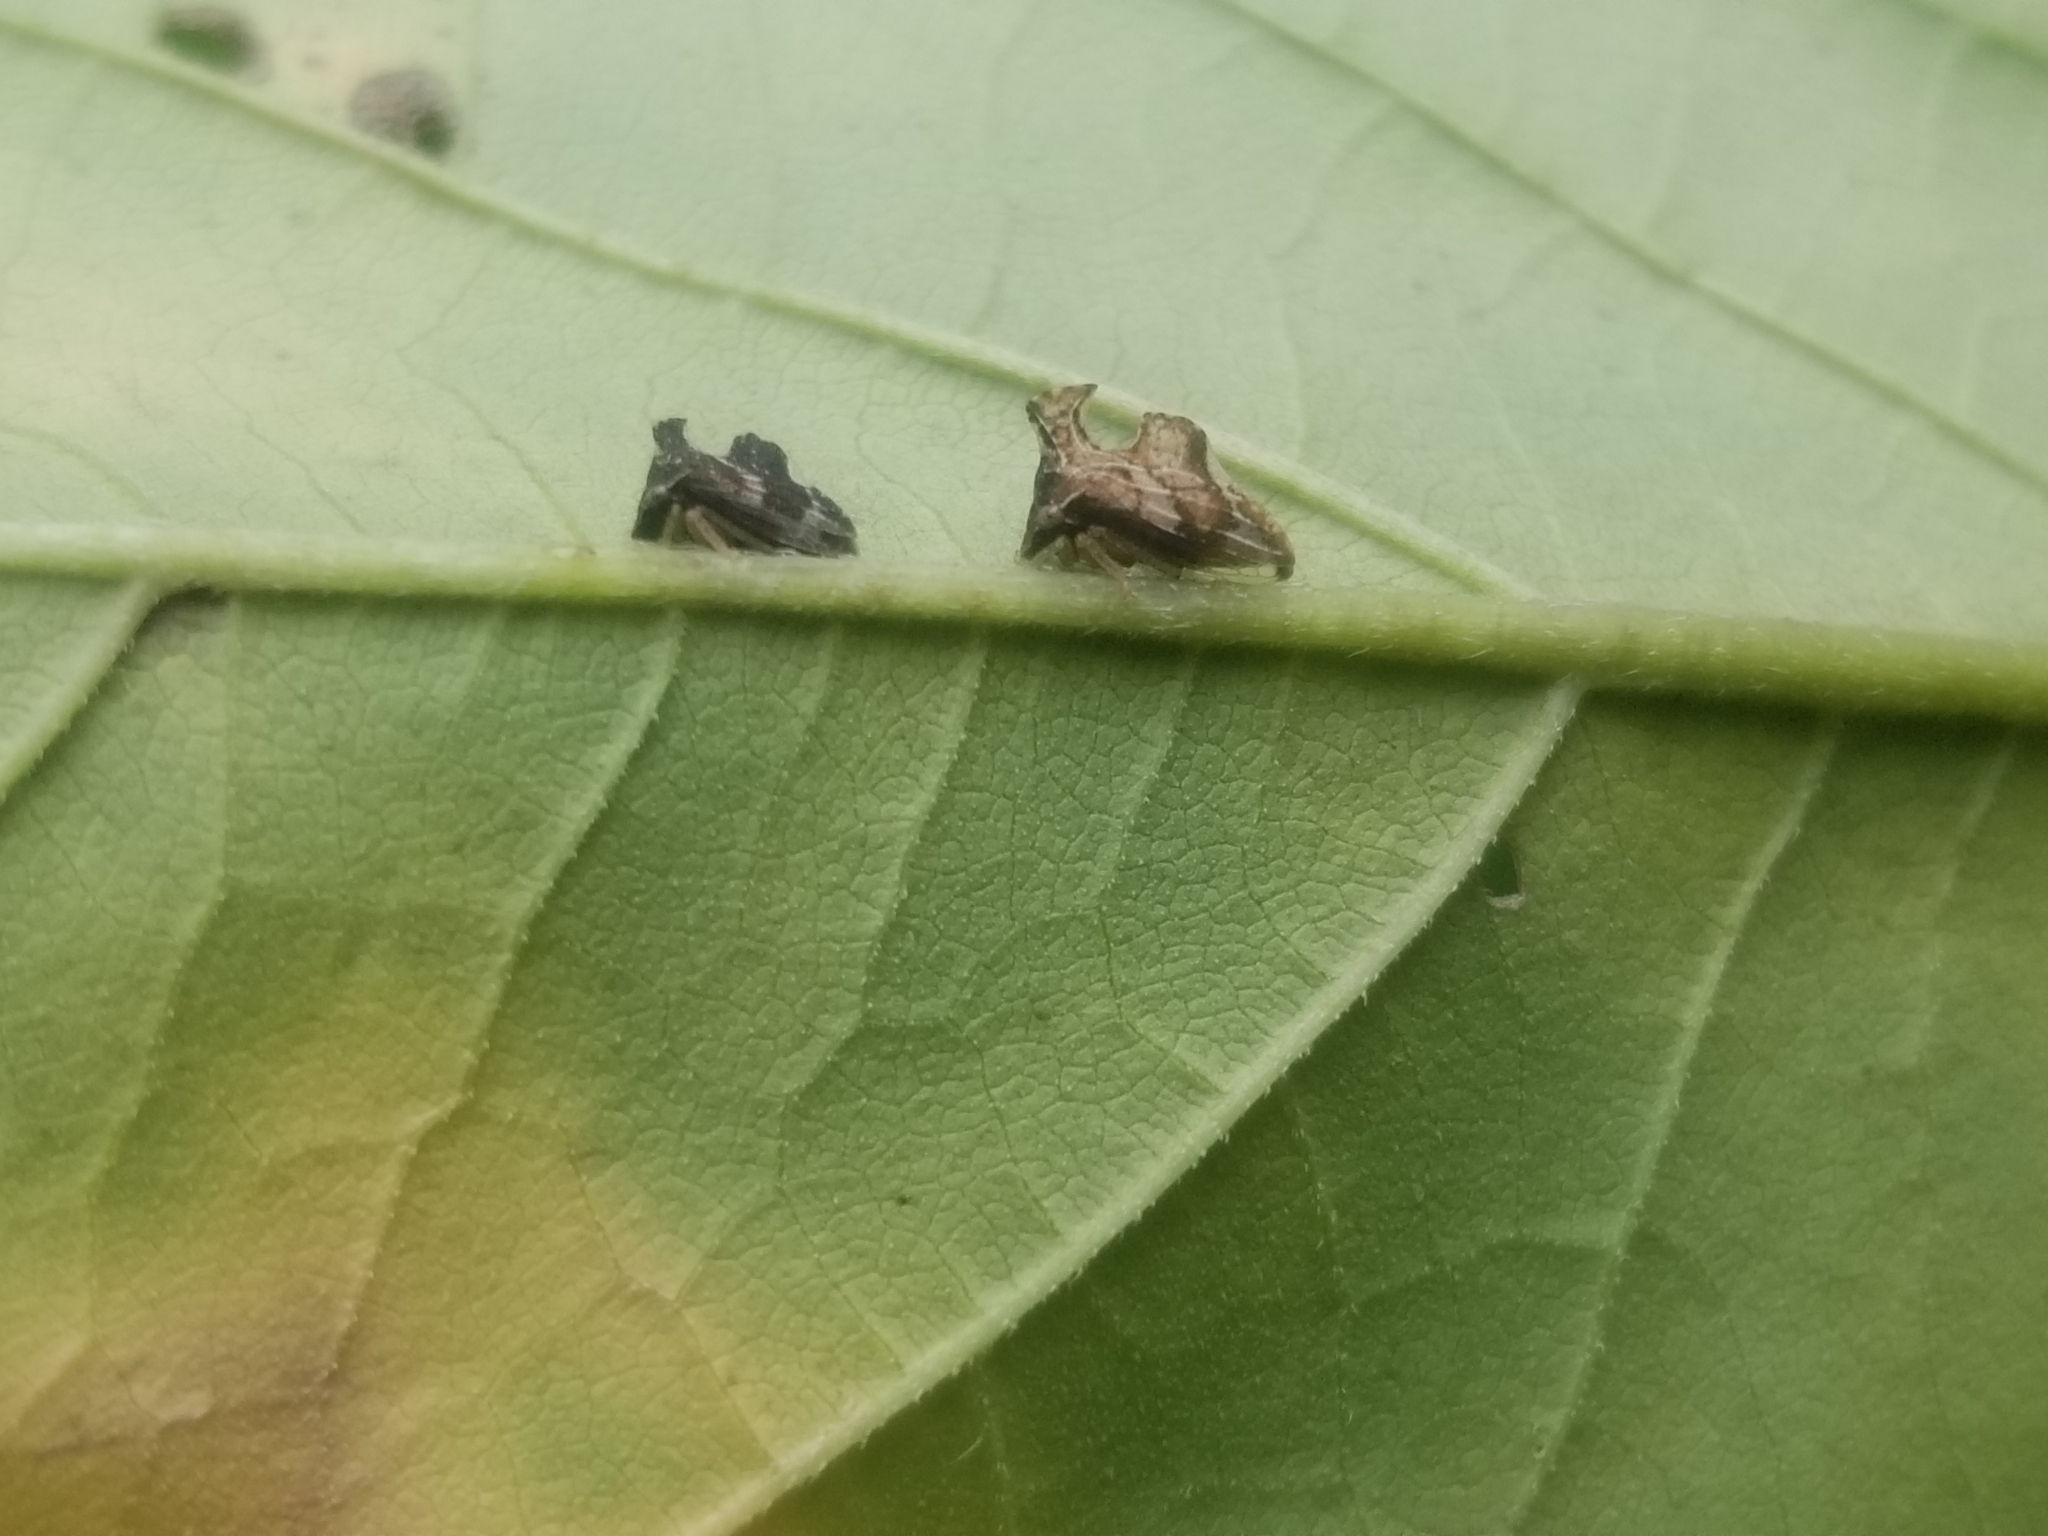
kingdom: Animalia
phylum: Arthropoda
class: Insecta
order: Hemiptera
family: Membracidae
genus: Entylia
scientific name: Entylia carinata
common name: Keeled treehopper
